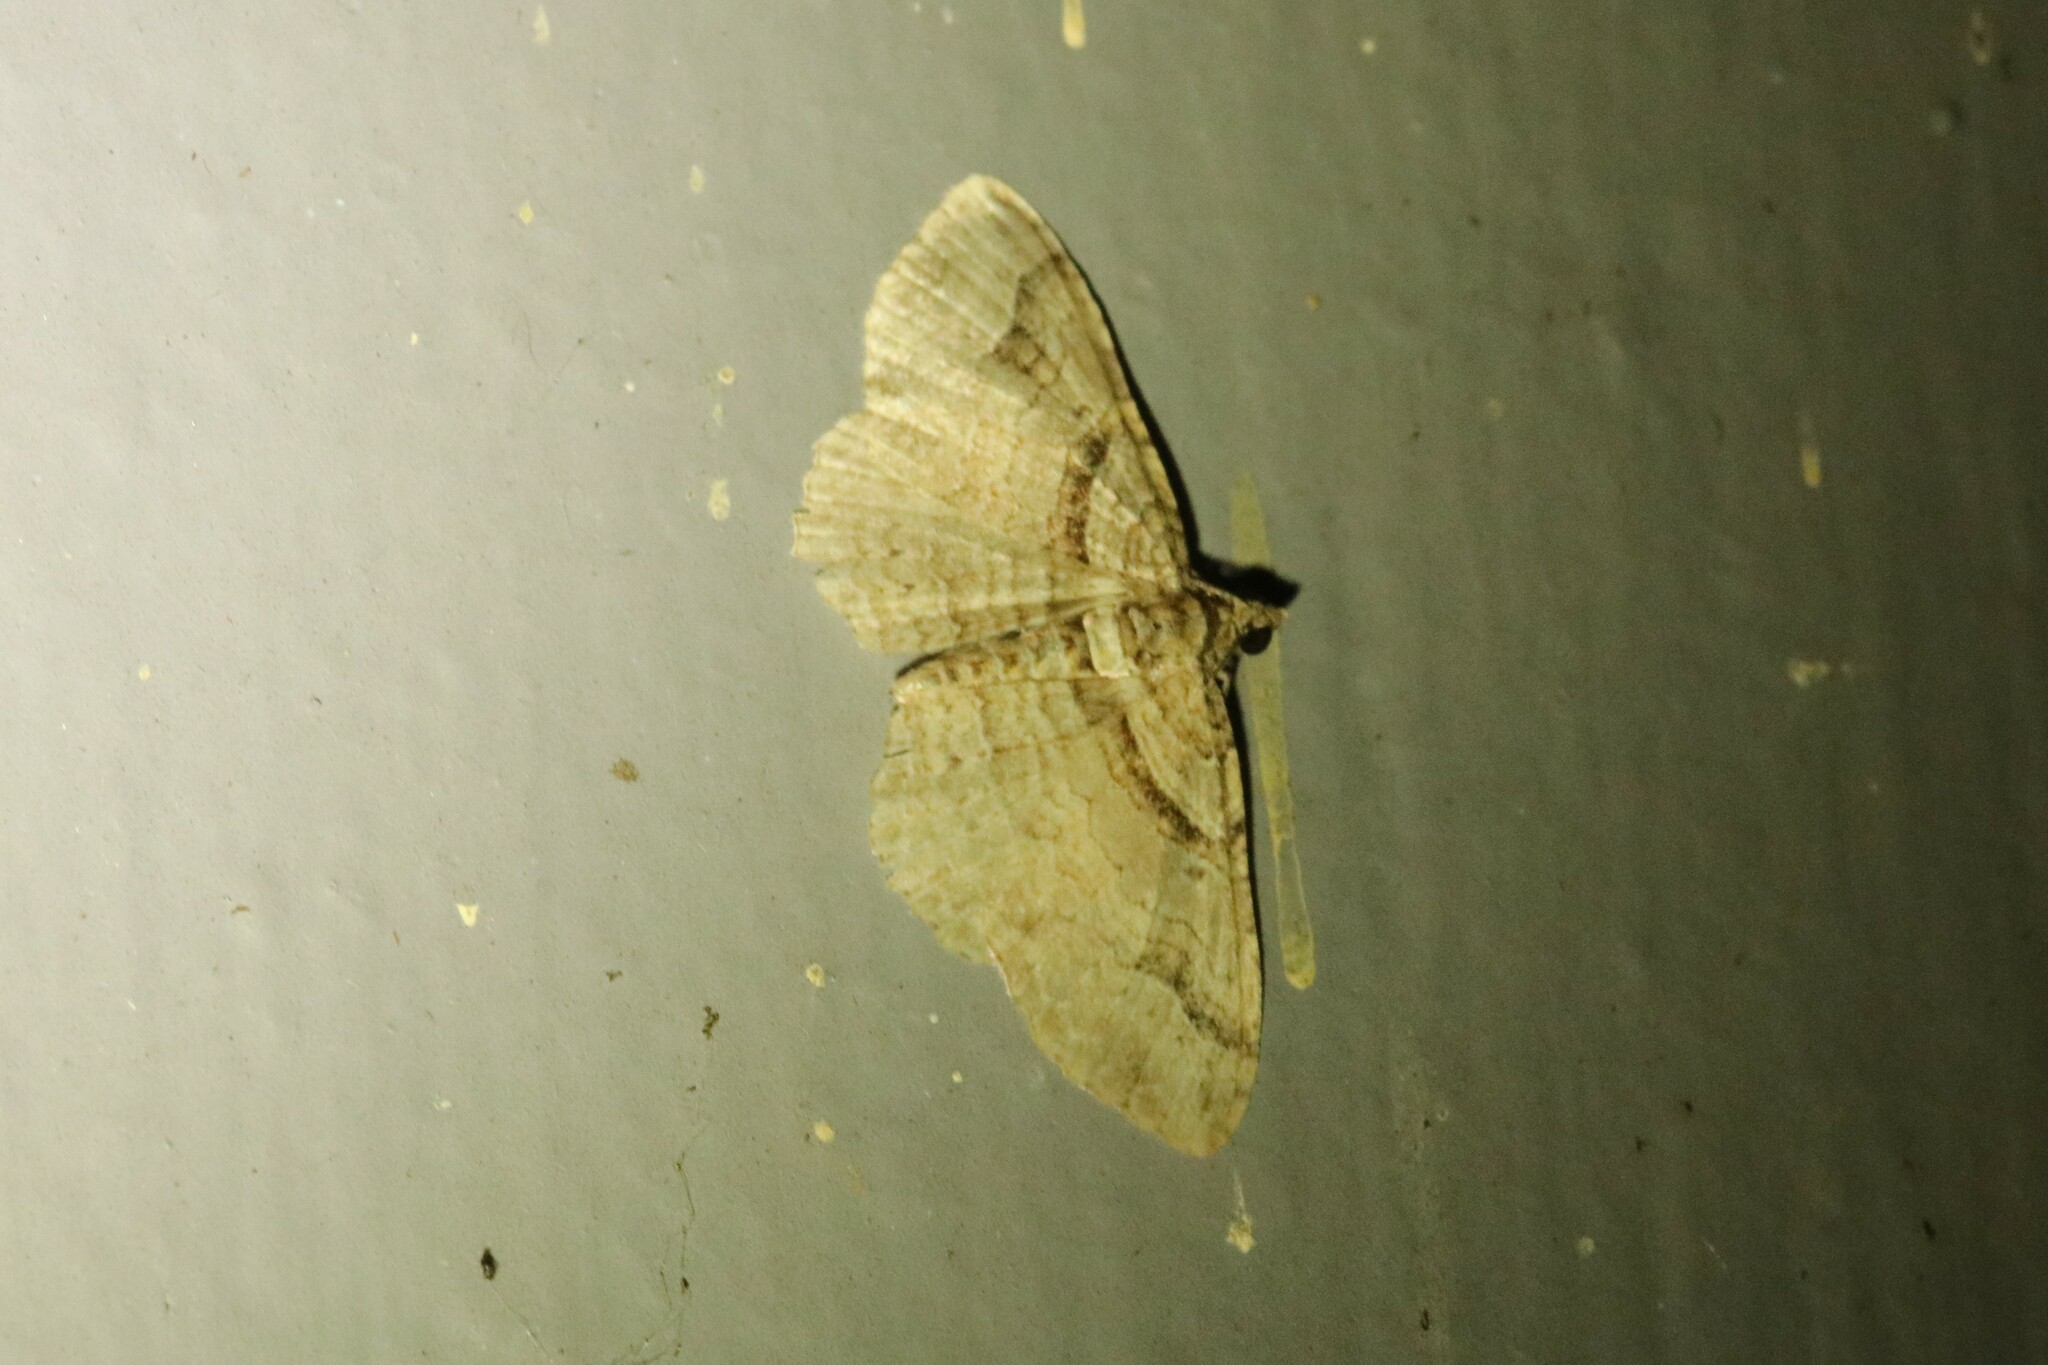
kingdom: Animalia
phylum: Arthropoda
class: Insecta
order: Lepidoptera
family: Geometridae
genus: Costaconvexa
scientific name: Costaconvexa centrostrigaria
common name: Bent-line carpet
